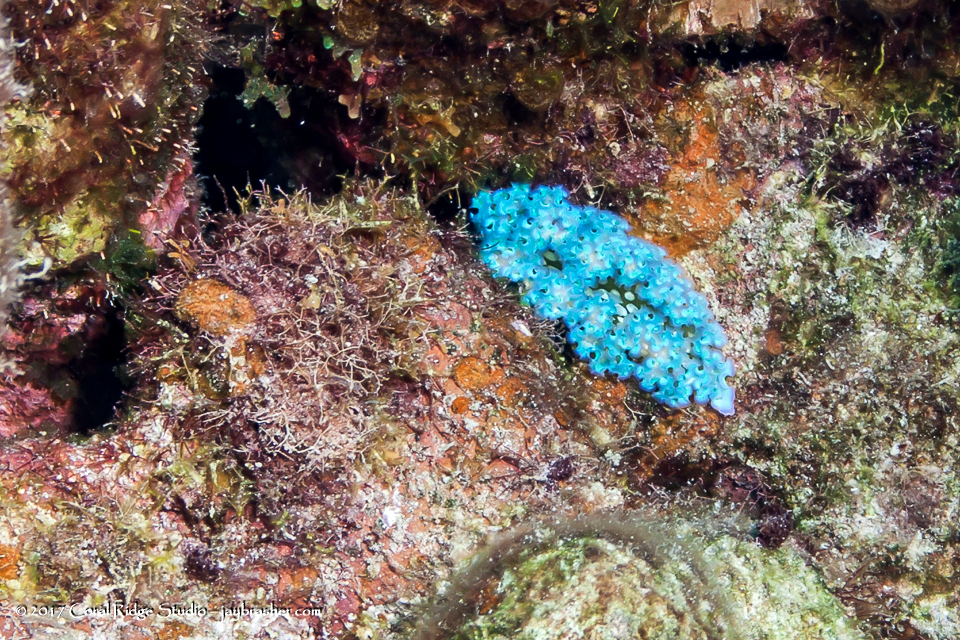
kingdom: Animalia
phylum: Mollusca
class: Gastropoda
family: Plakobranchidae
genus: Elysia
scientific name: Elysia crispata
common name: Lettuce slug
